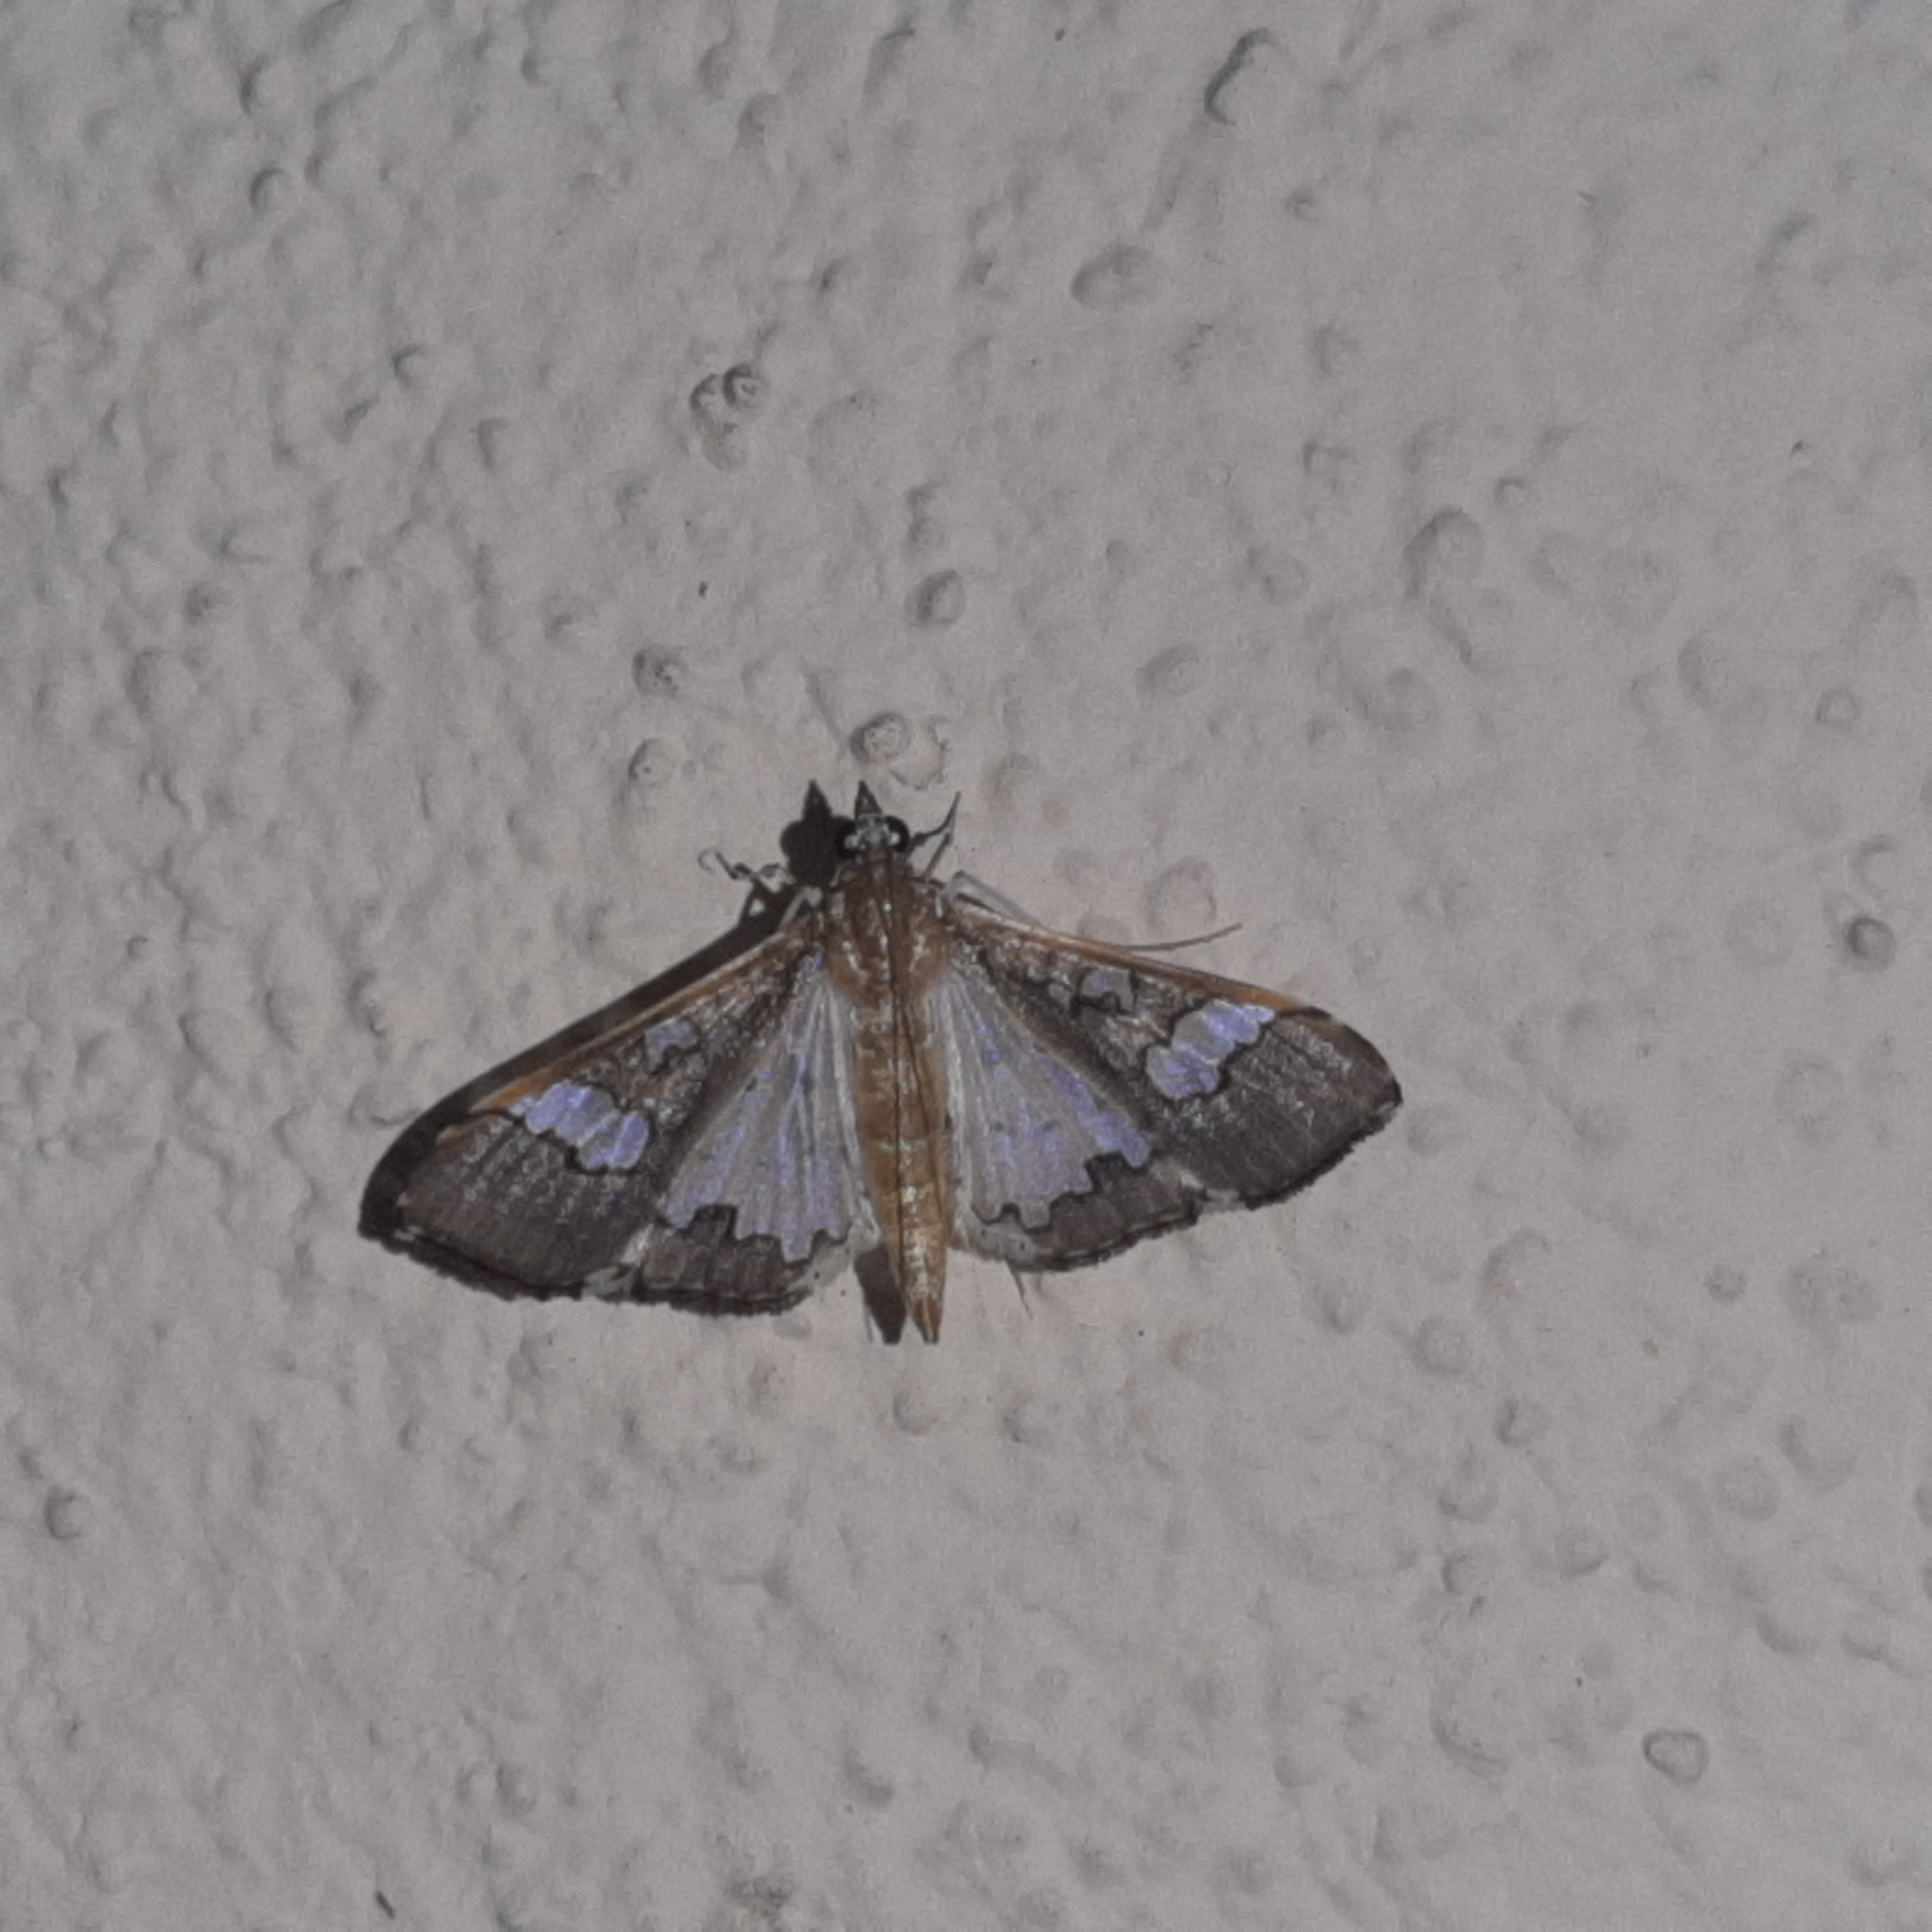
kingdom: Animalia
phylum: Arthropoda
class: Insecta
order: Lepidoptera
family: Crambidae
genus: Maruca
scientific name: Maruca vitrata
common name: Maruca pod borer
